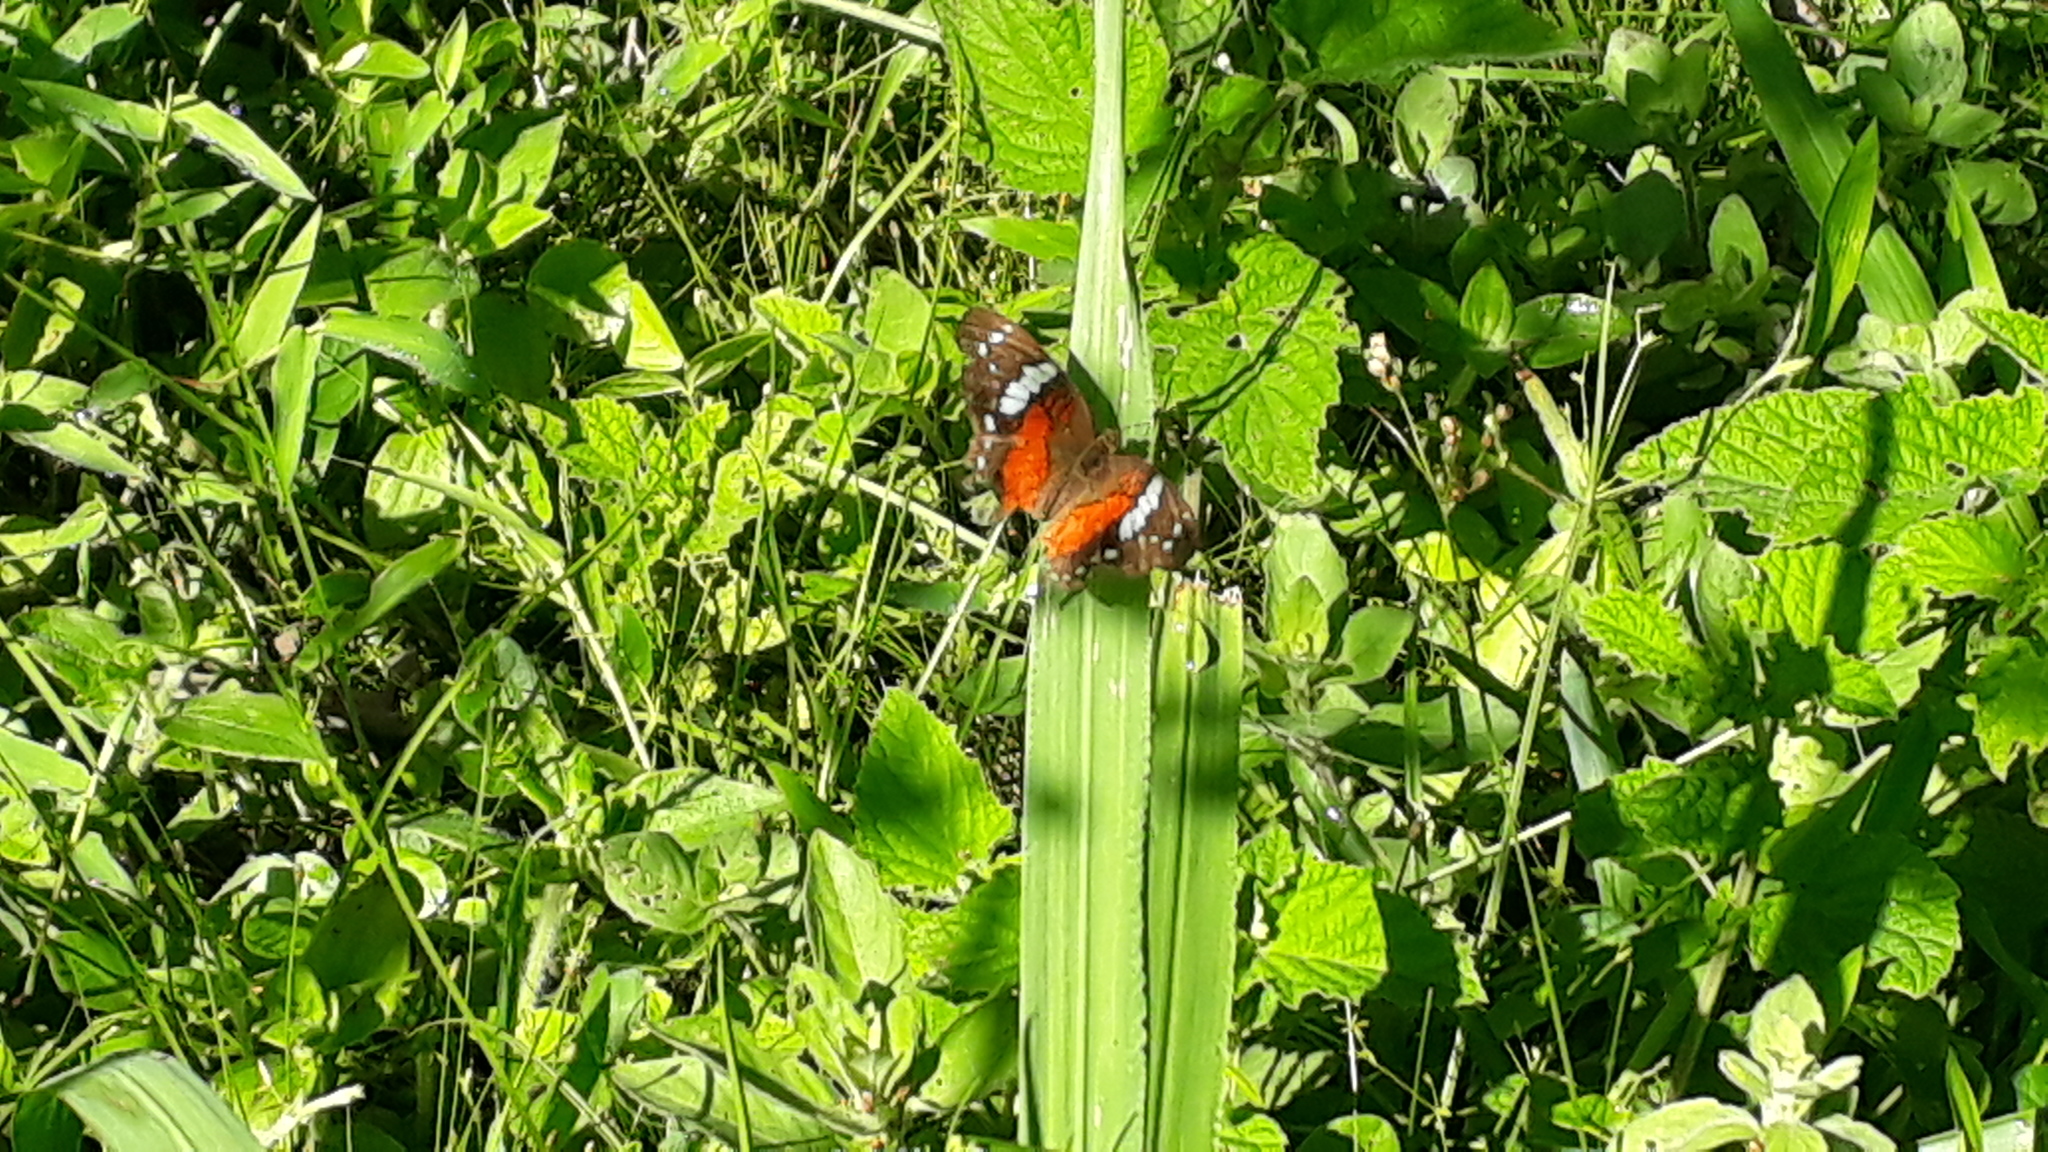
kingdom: Animalia
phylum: Arthropoda
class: Insecta
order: Lepidoptera
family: Nymphalidae
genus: Anartia
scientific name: Anartia amathea
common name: Red peacock
